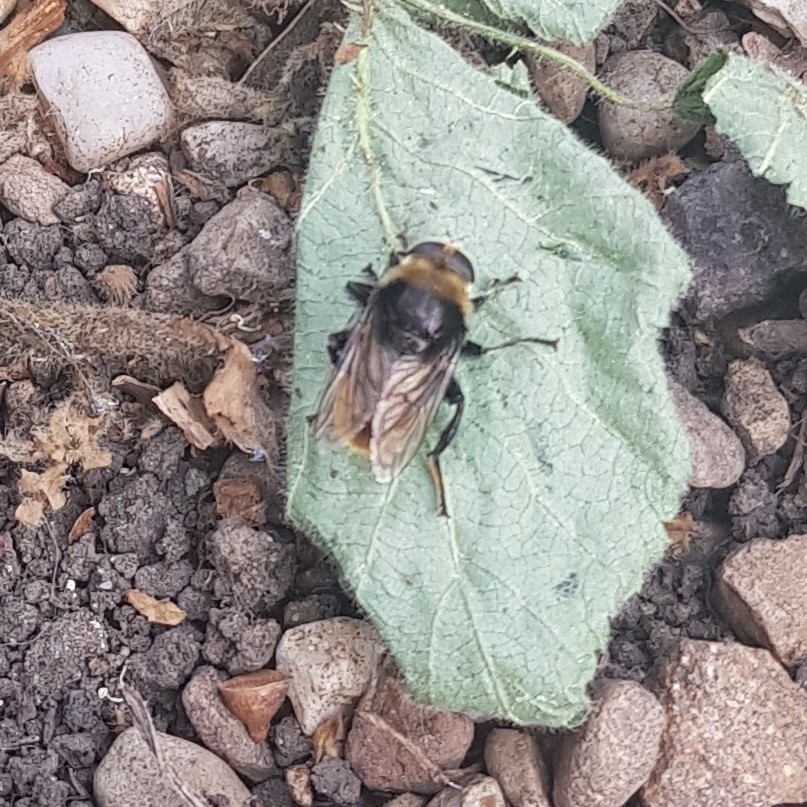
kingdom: Animalia
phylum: Arthropoda
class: Insecta
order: Diptera
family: Syrphidae
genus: Merodon
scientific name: Merodon equestris
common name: Greater bulb-fly
